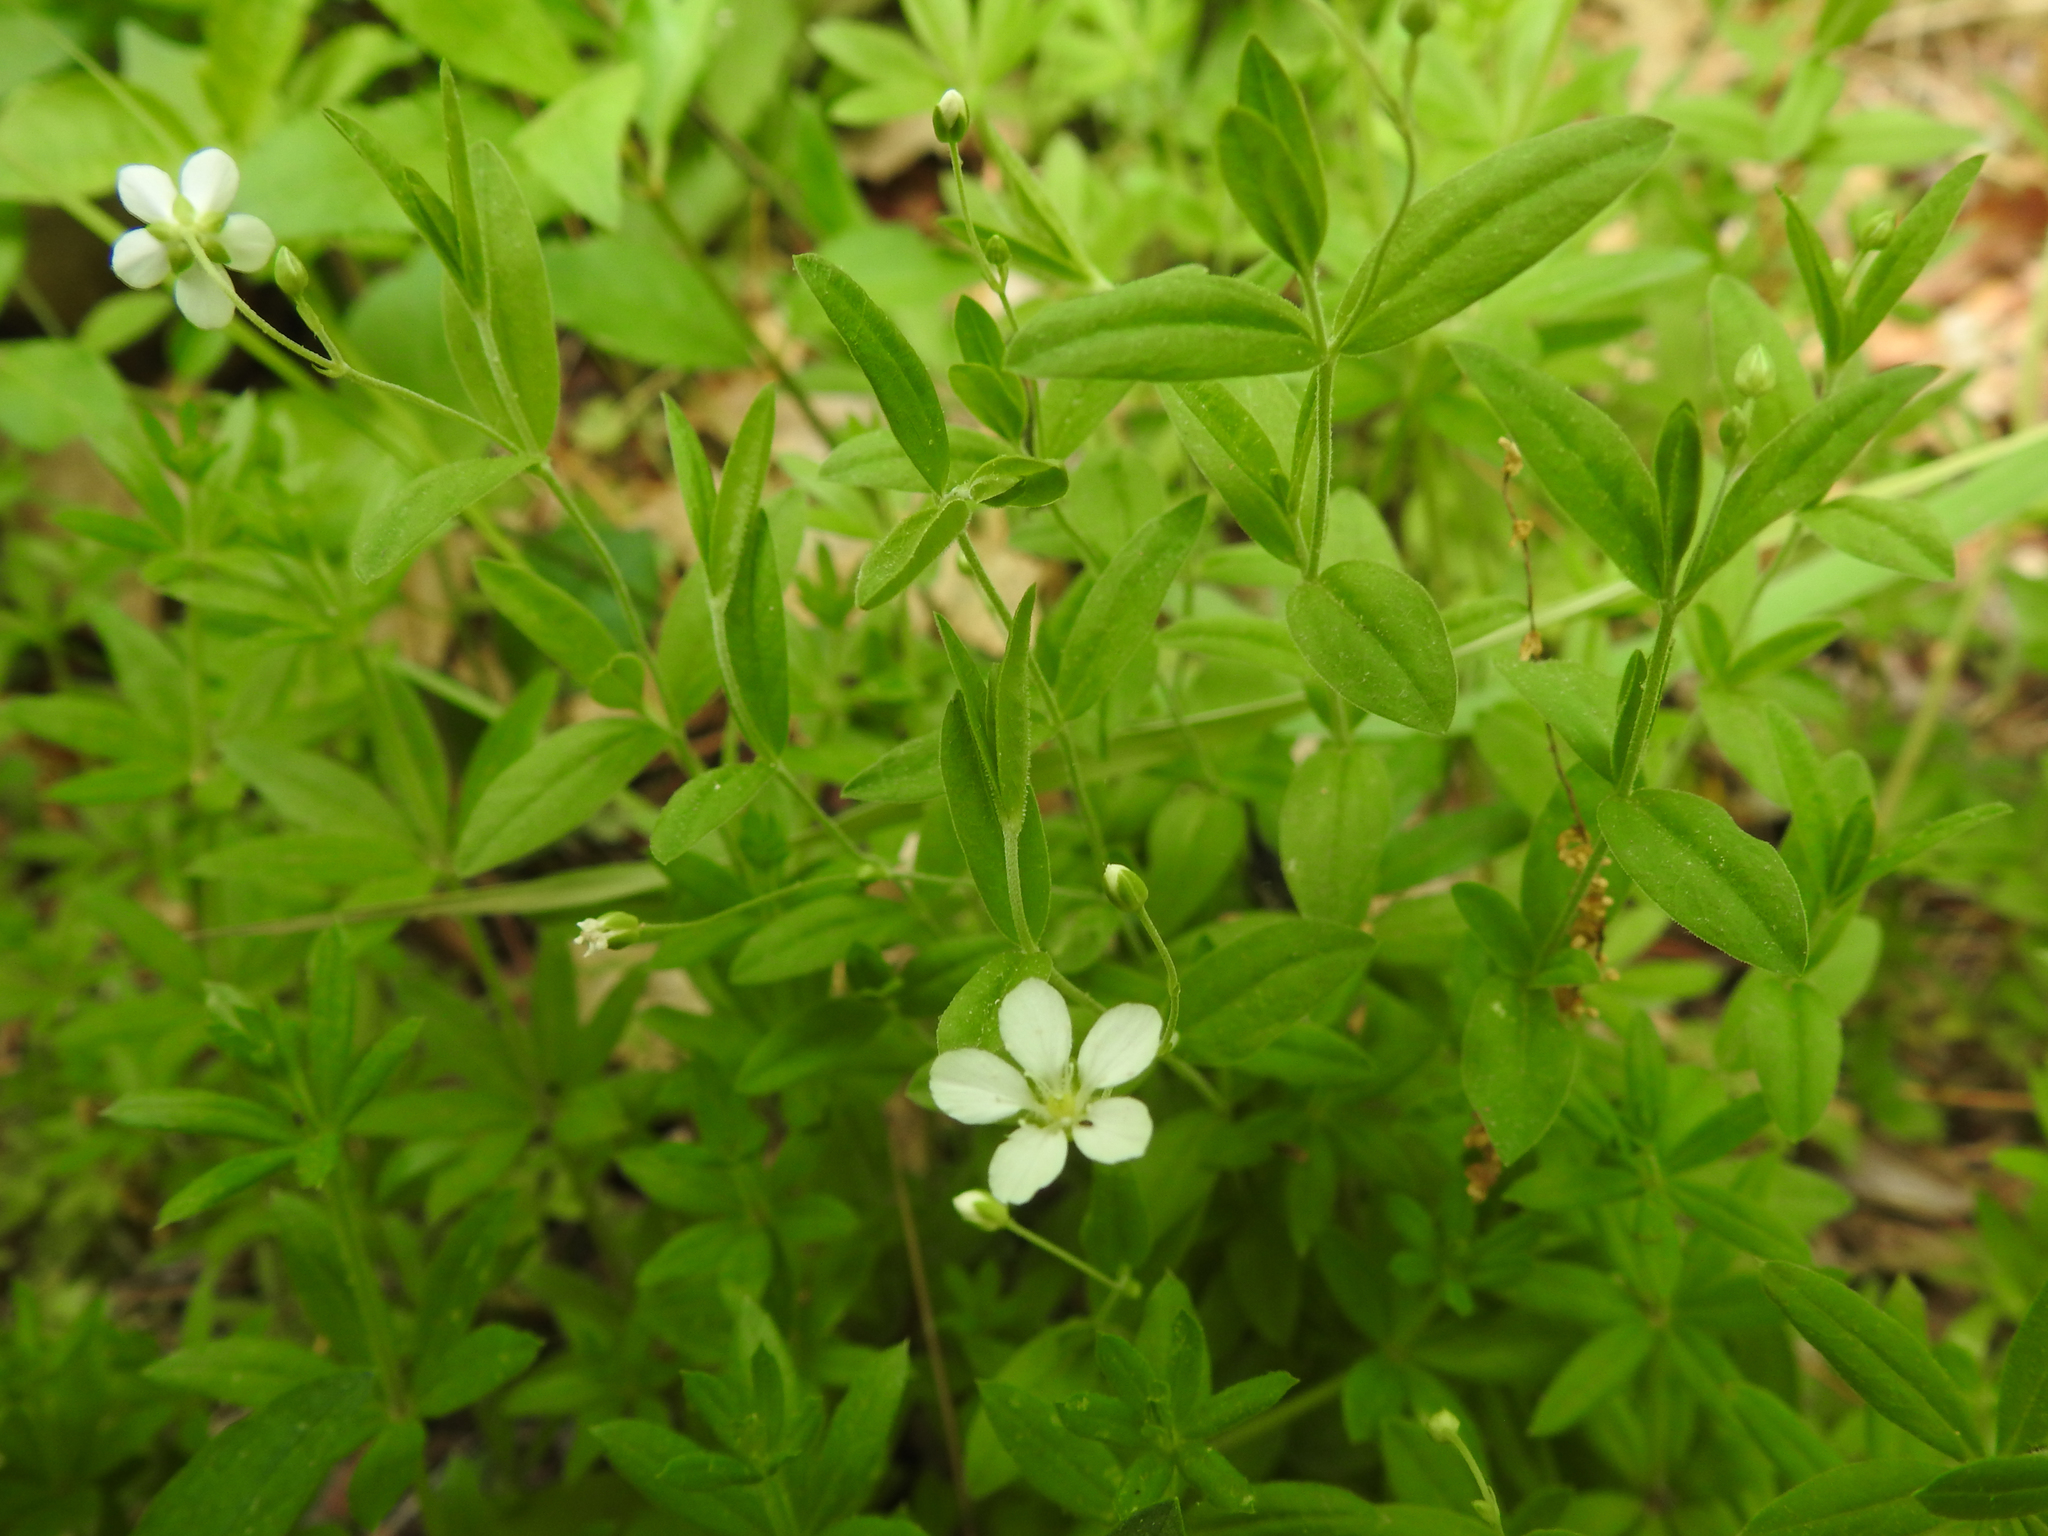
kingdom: Plantae
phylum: Tracheophyta
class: Magnoliopsida
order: Caryophyllales
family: Caryophyllaceae
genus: Moehringia
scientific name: Moehringia lateriflora
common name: Blunt-leaved sandwort
